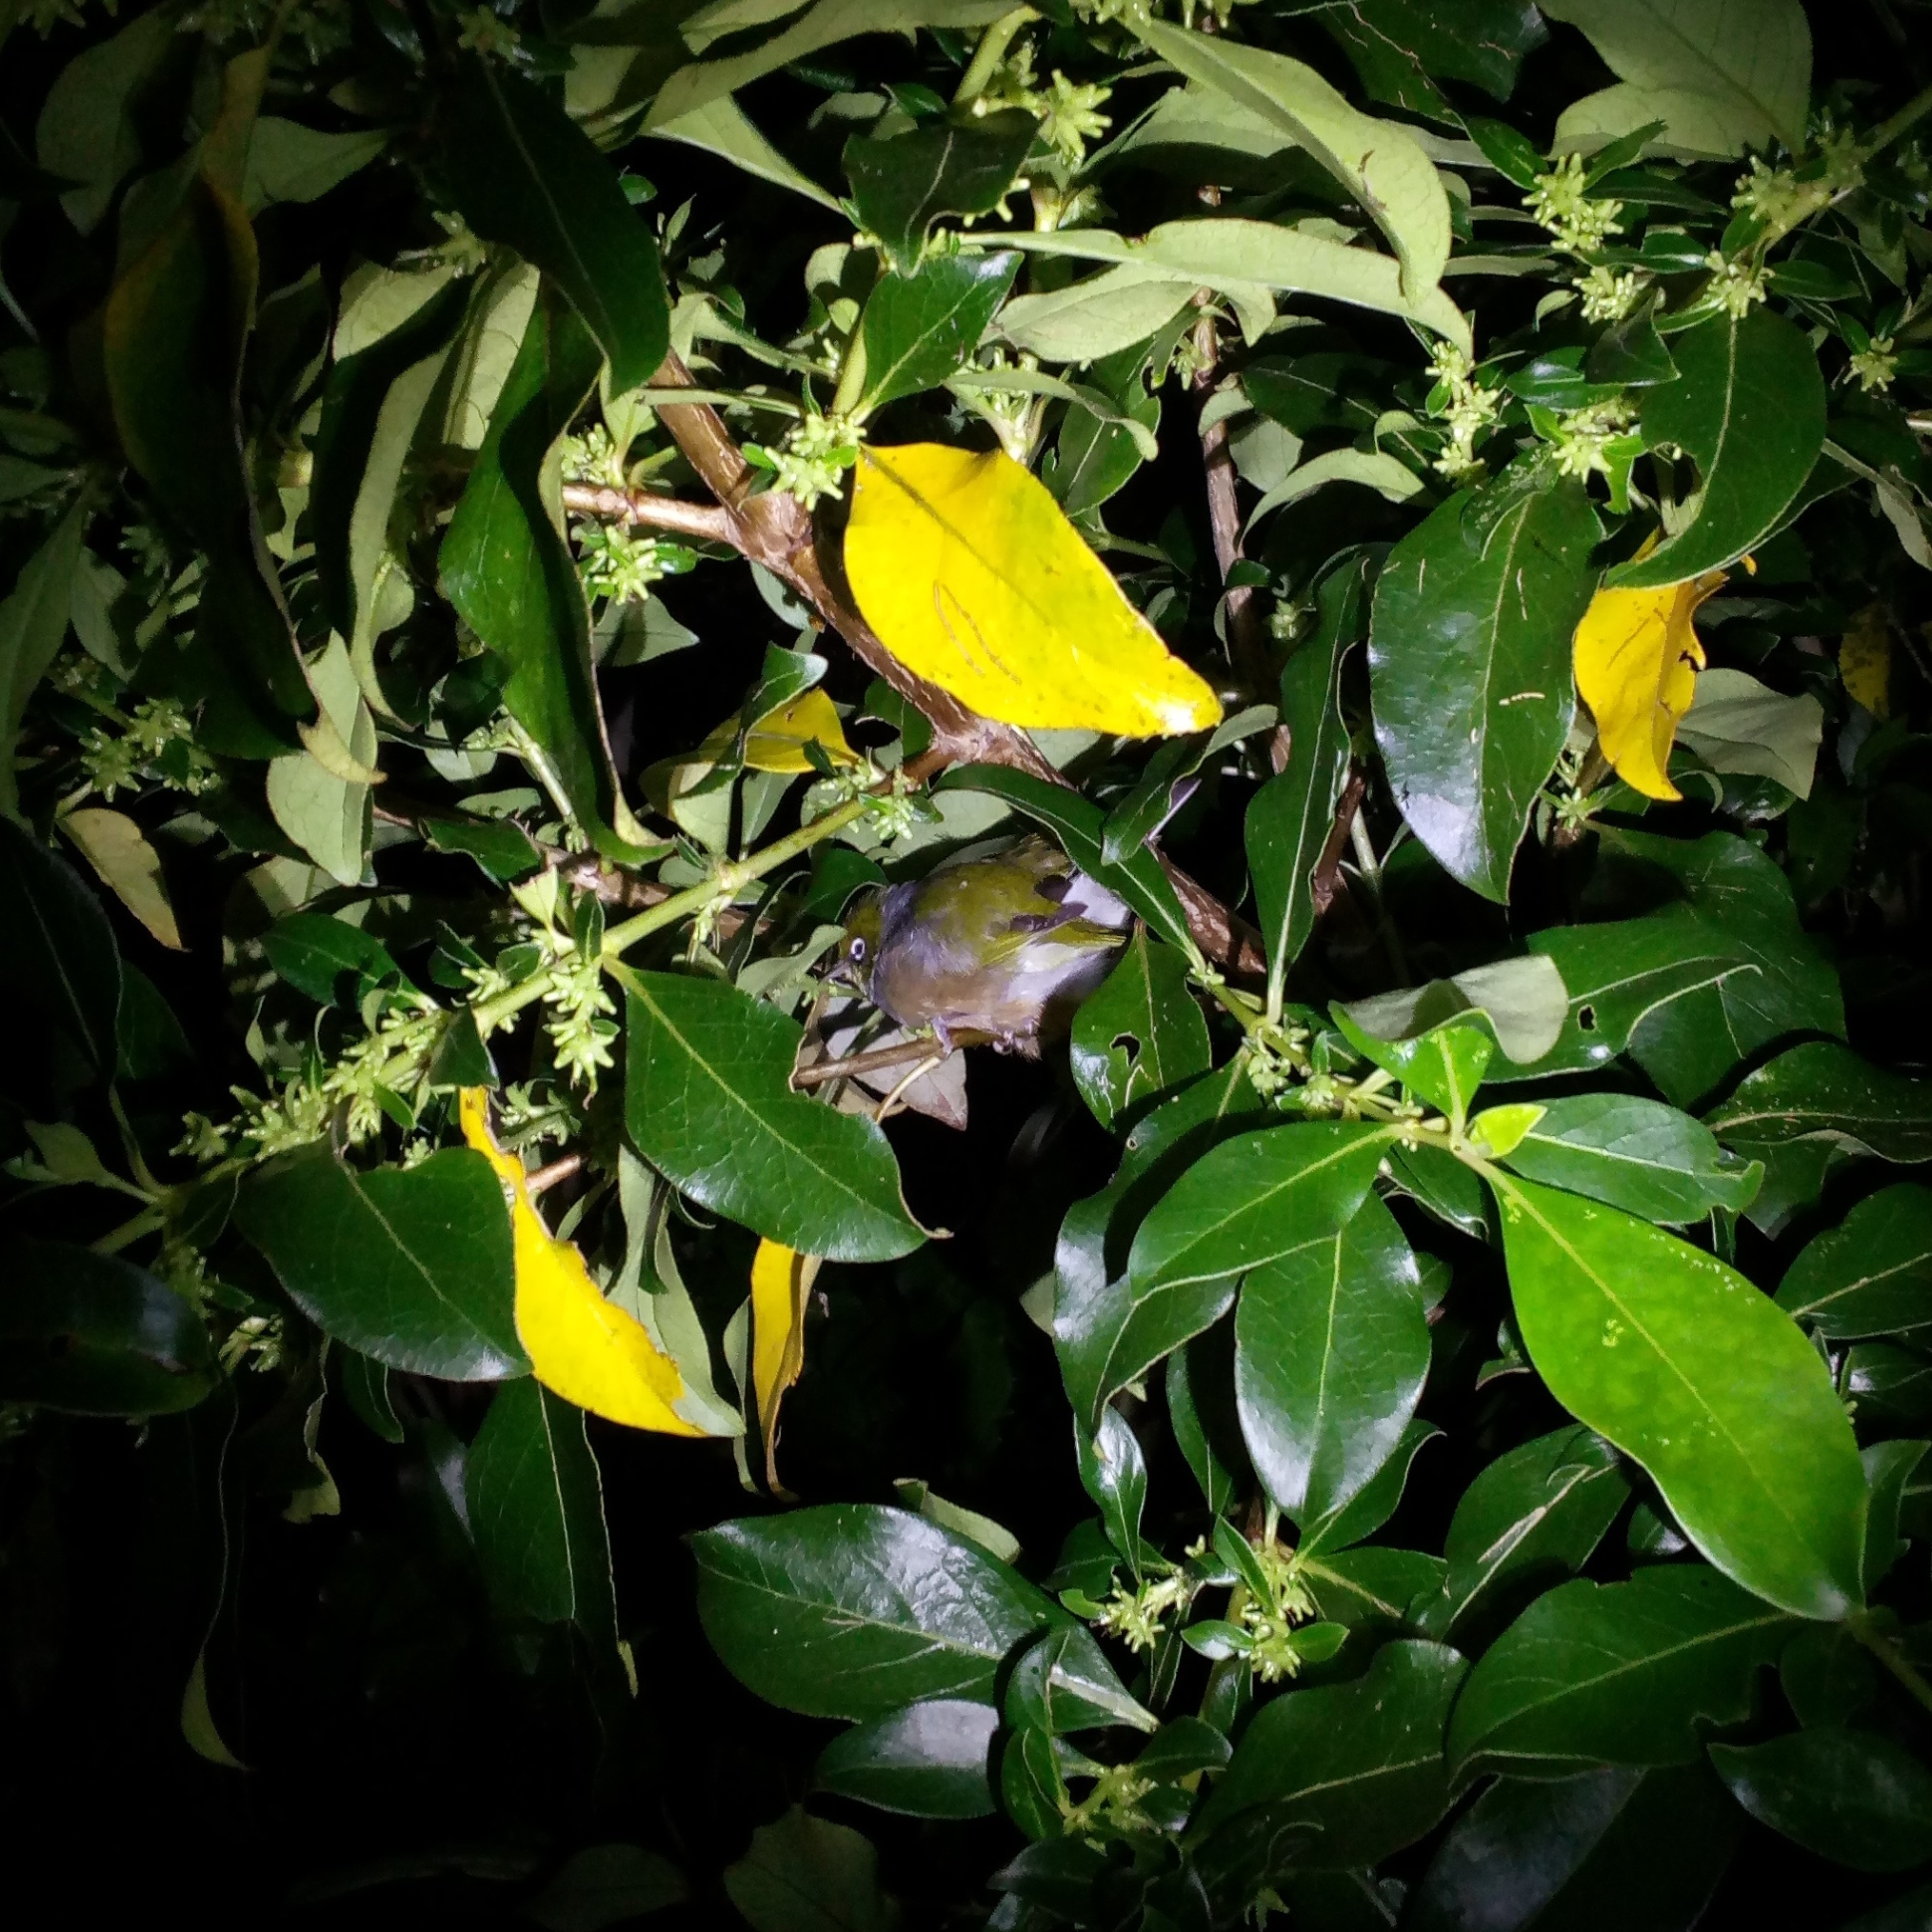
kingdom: Animalia
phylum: Chordata
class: Aves
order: Passeriformes
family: Zosteropidae
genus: Zosterops
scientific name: Zosterops lateralis
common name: Silvereye
